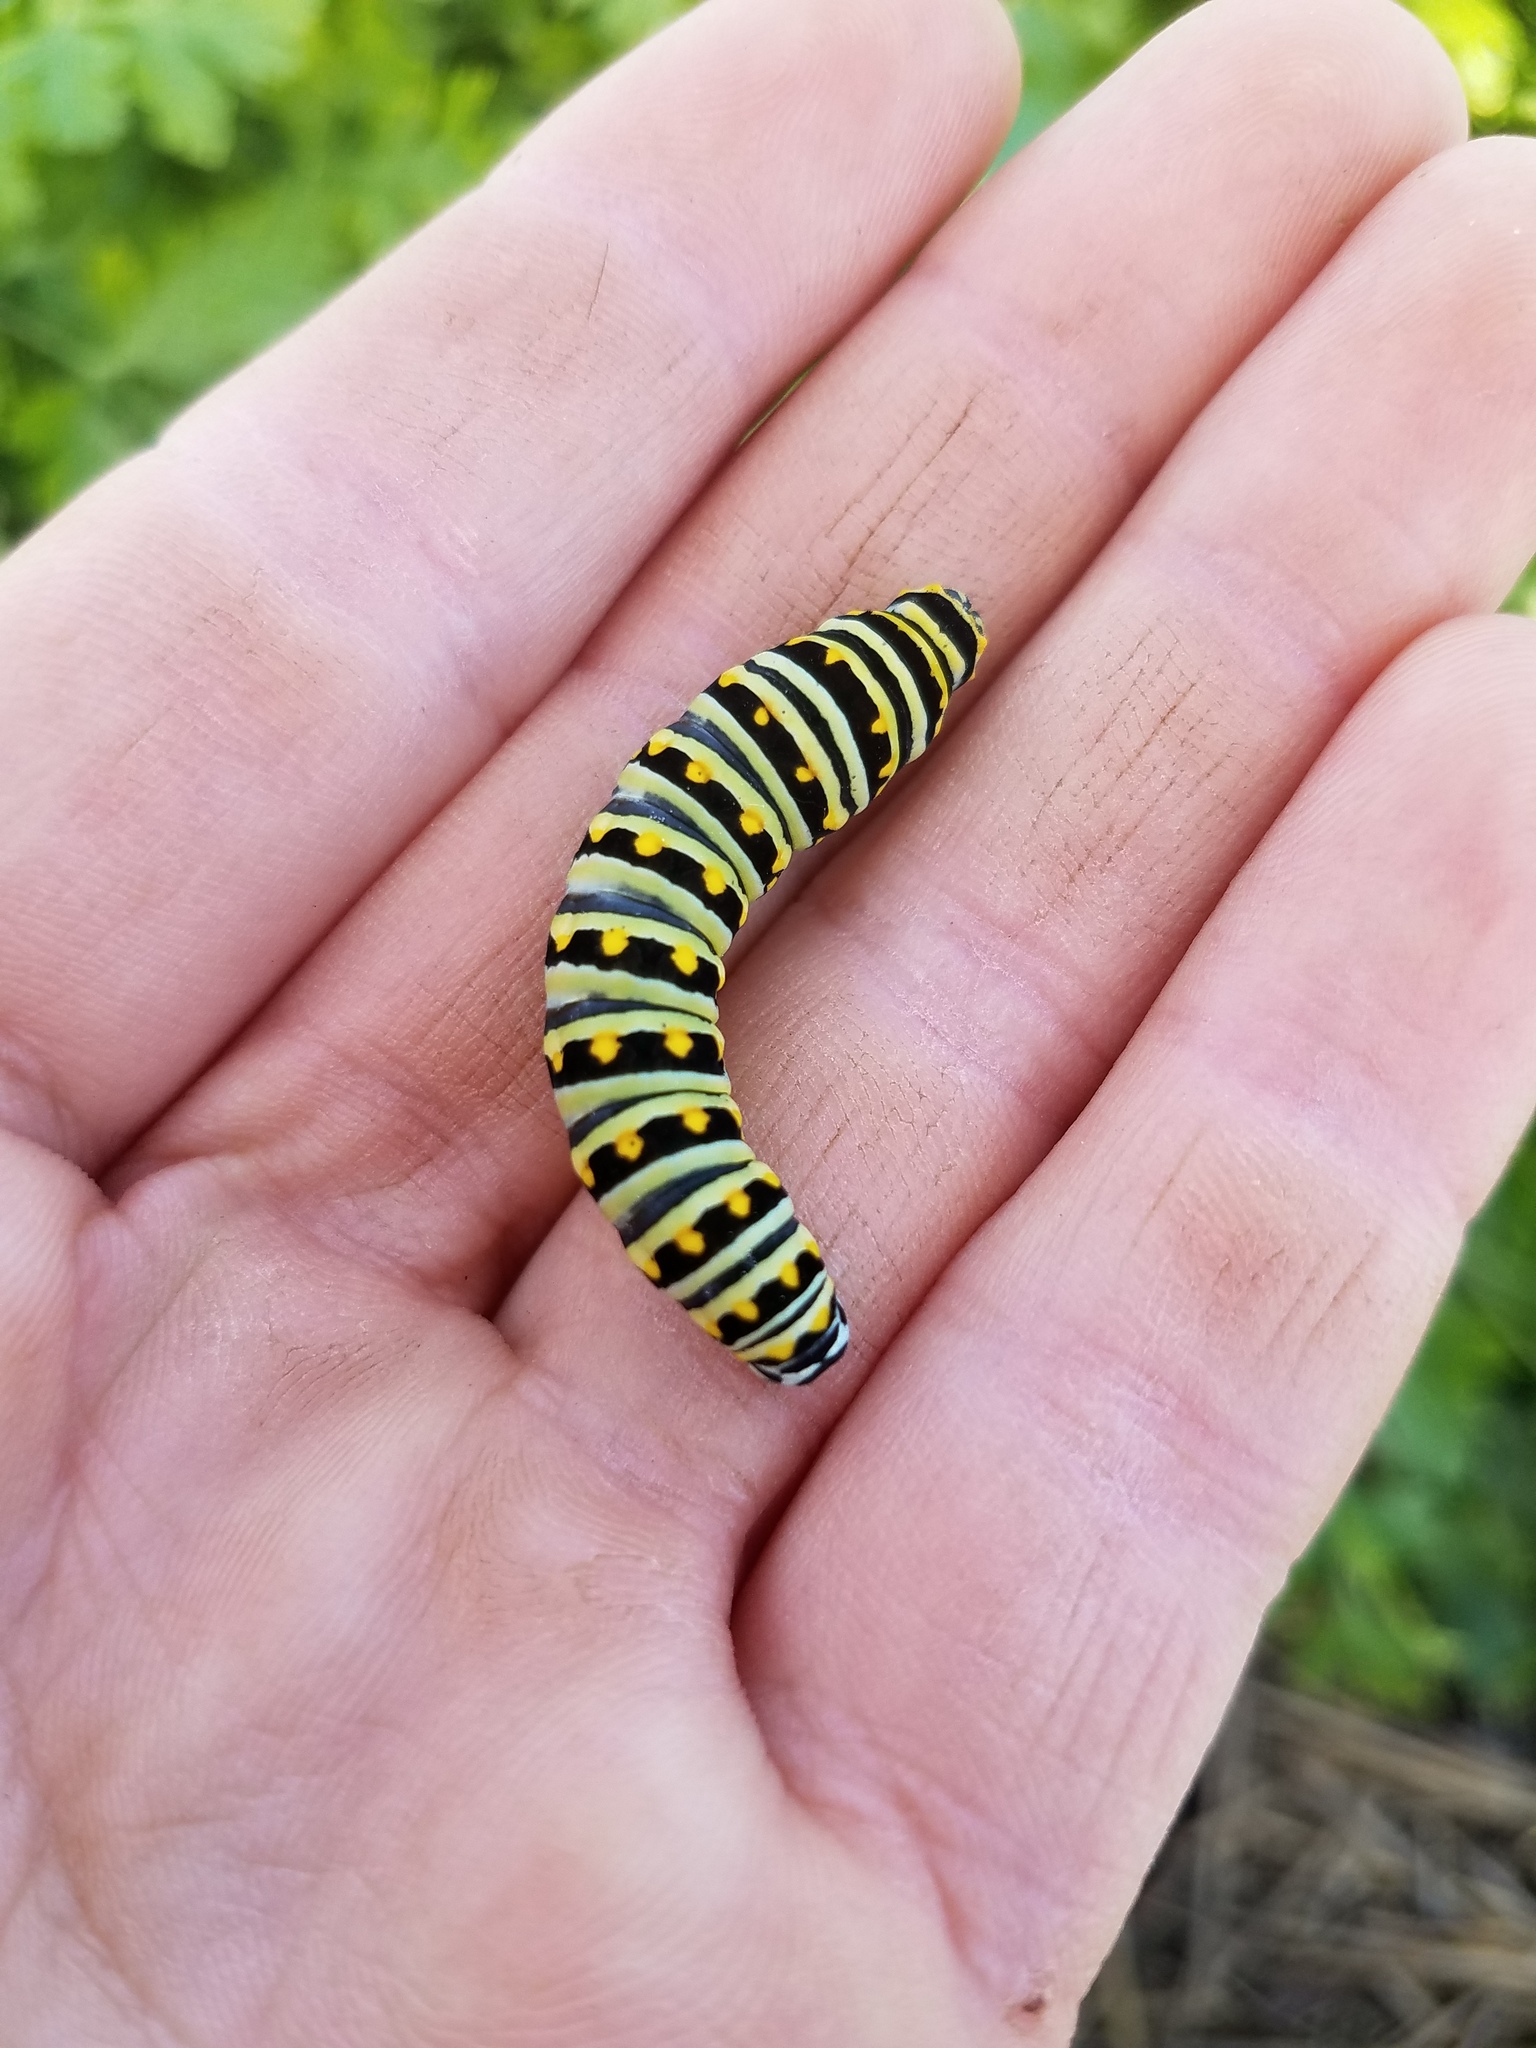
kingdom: Animalia
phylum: Arthropoda
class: Insecta
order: Lepidoptera
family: Papilionidae
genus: Papilio
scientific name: Papilio polyxenes
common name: Black swallowtail
